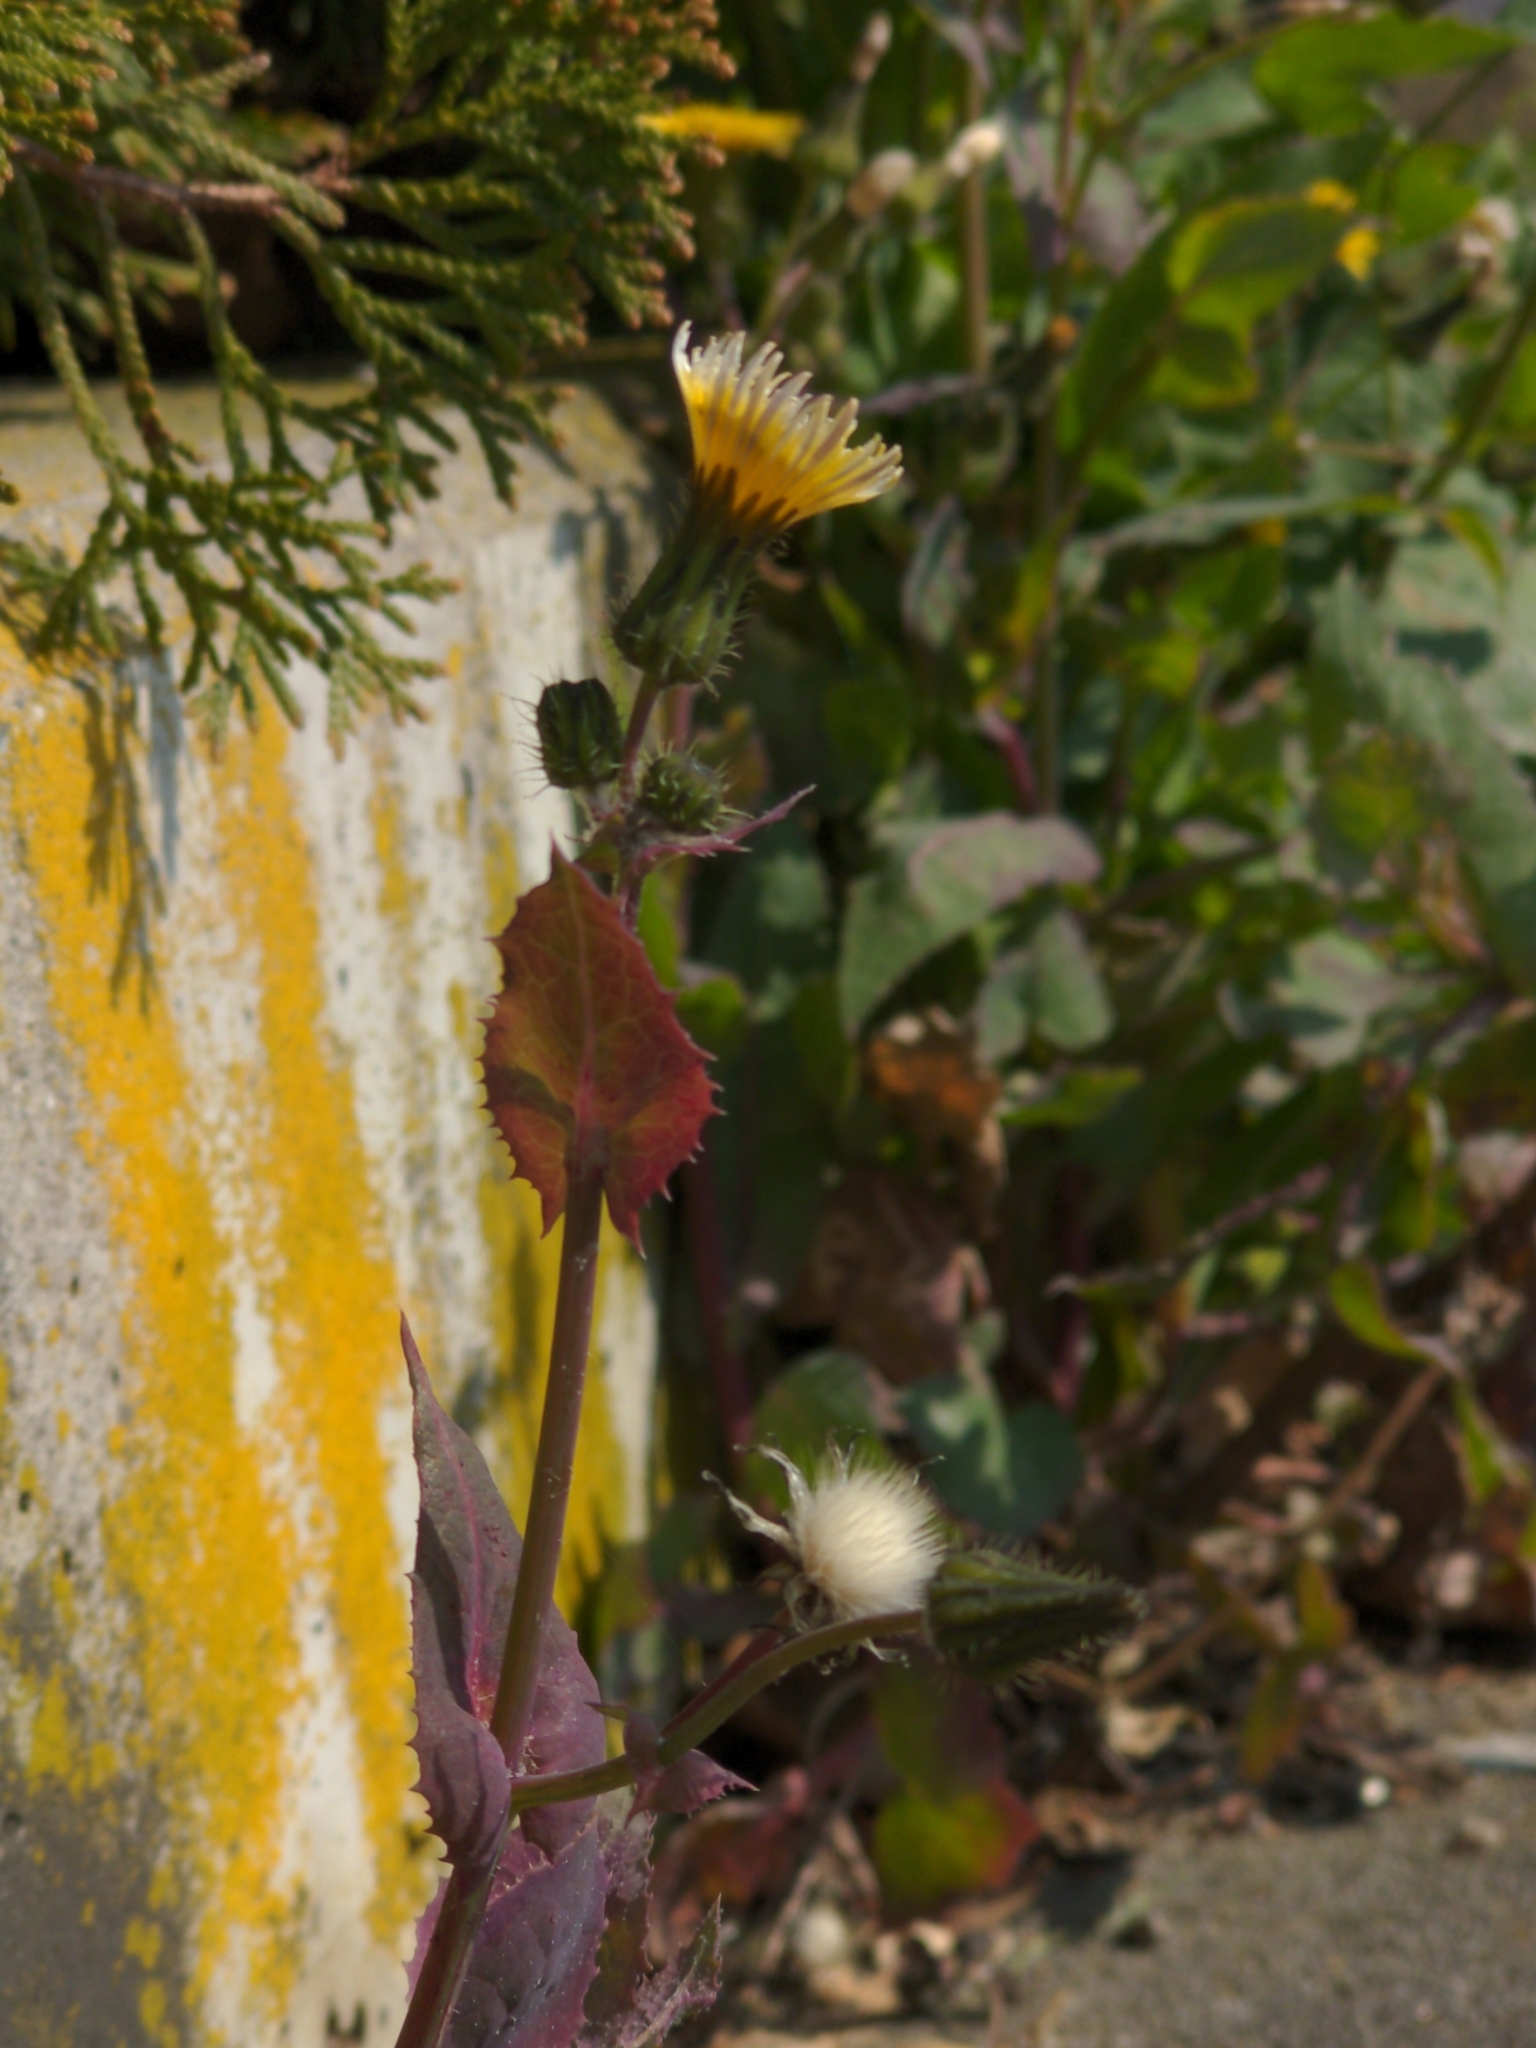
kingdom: Plantae
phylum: Tracheophyta
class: Magnoliopsida
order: Asterales
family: Asteraceae
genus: Sonchus
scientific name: Sonchus oleraceus
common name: Common sowthistle
